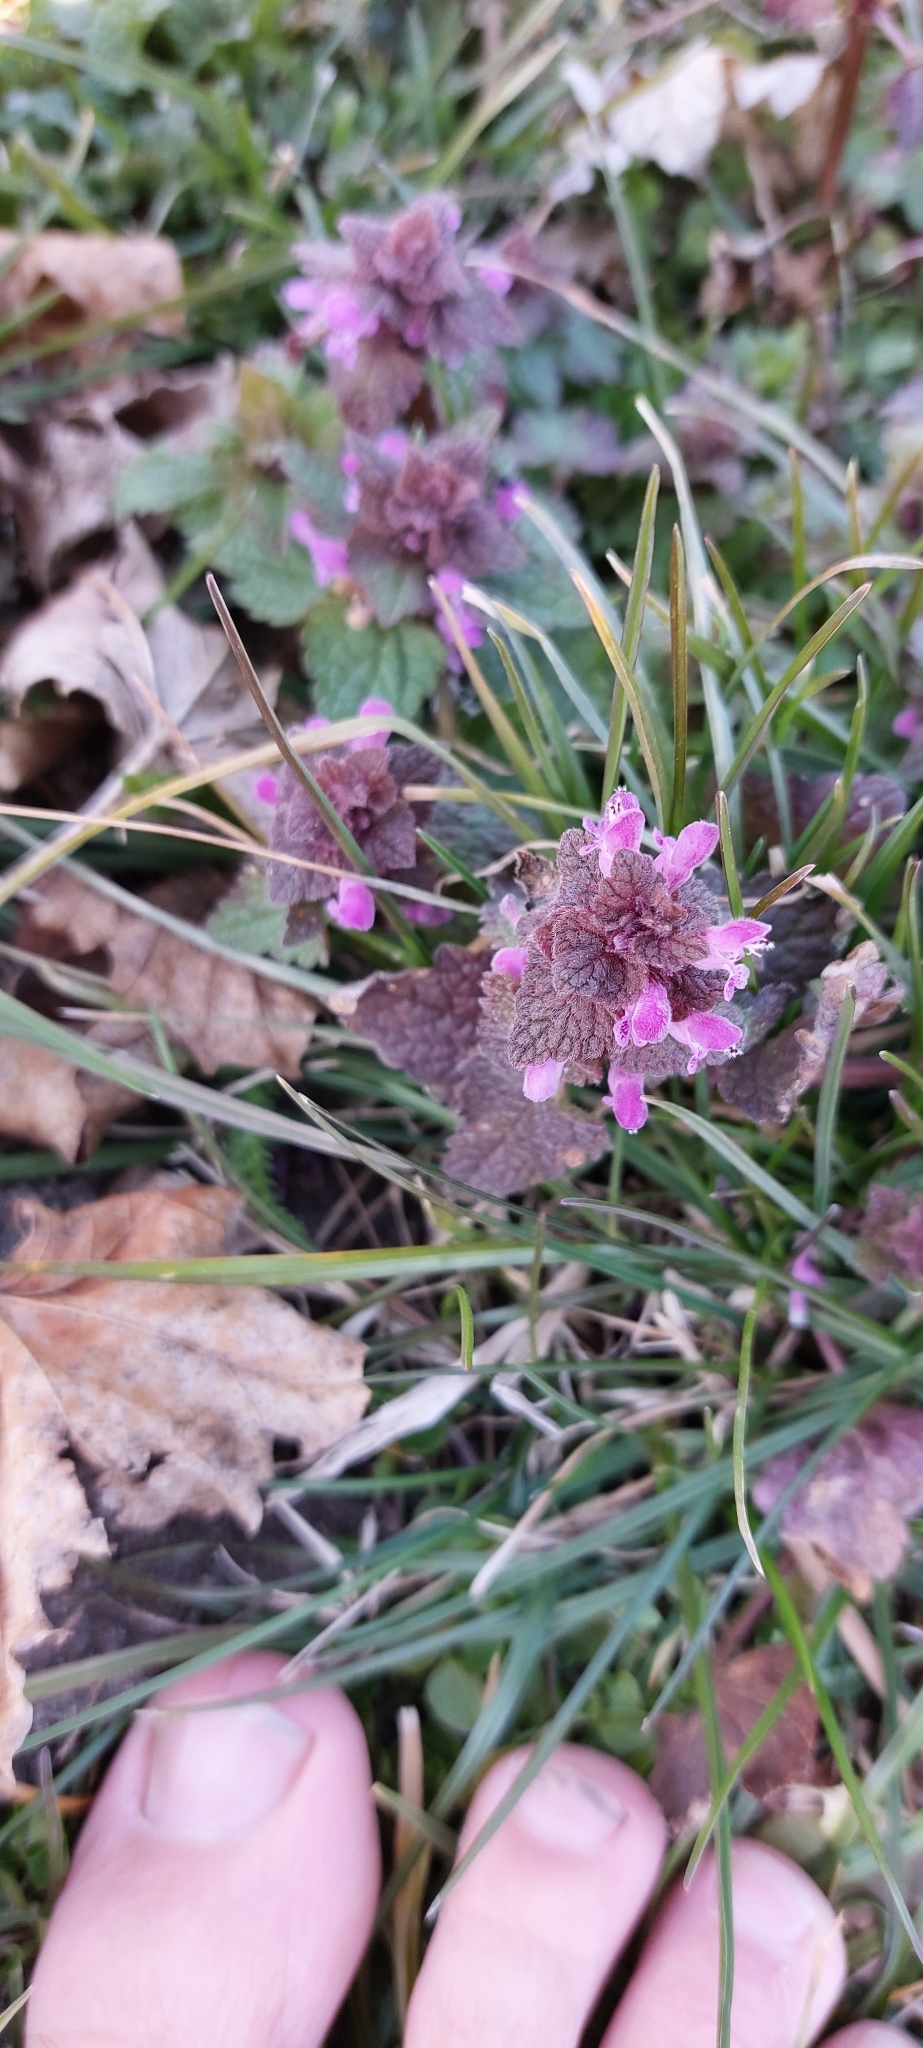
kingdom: Plantae
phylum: Tracheophyta
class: Magnoliopsida
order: Lamiales
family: Lamiaceae
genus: Lamium
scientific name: Lamium purpureum
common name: Red dead-nettle
